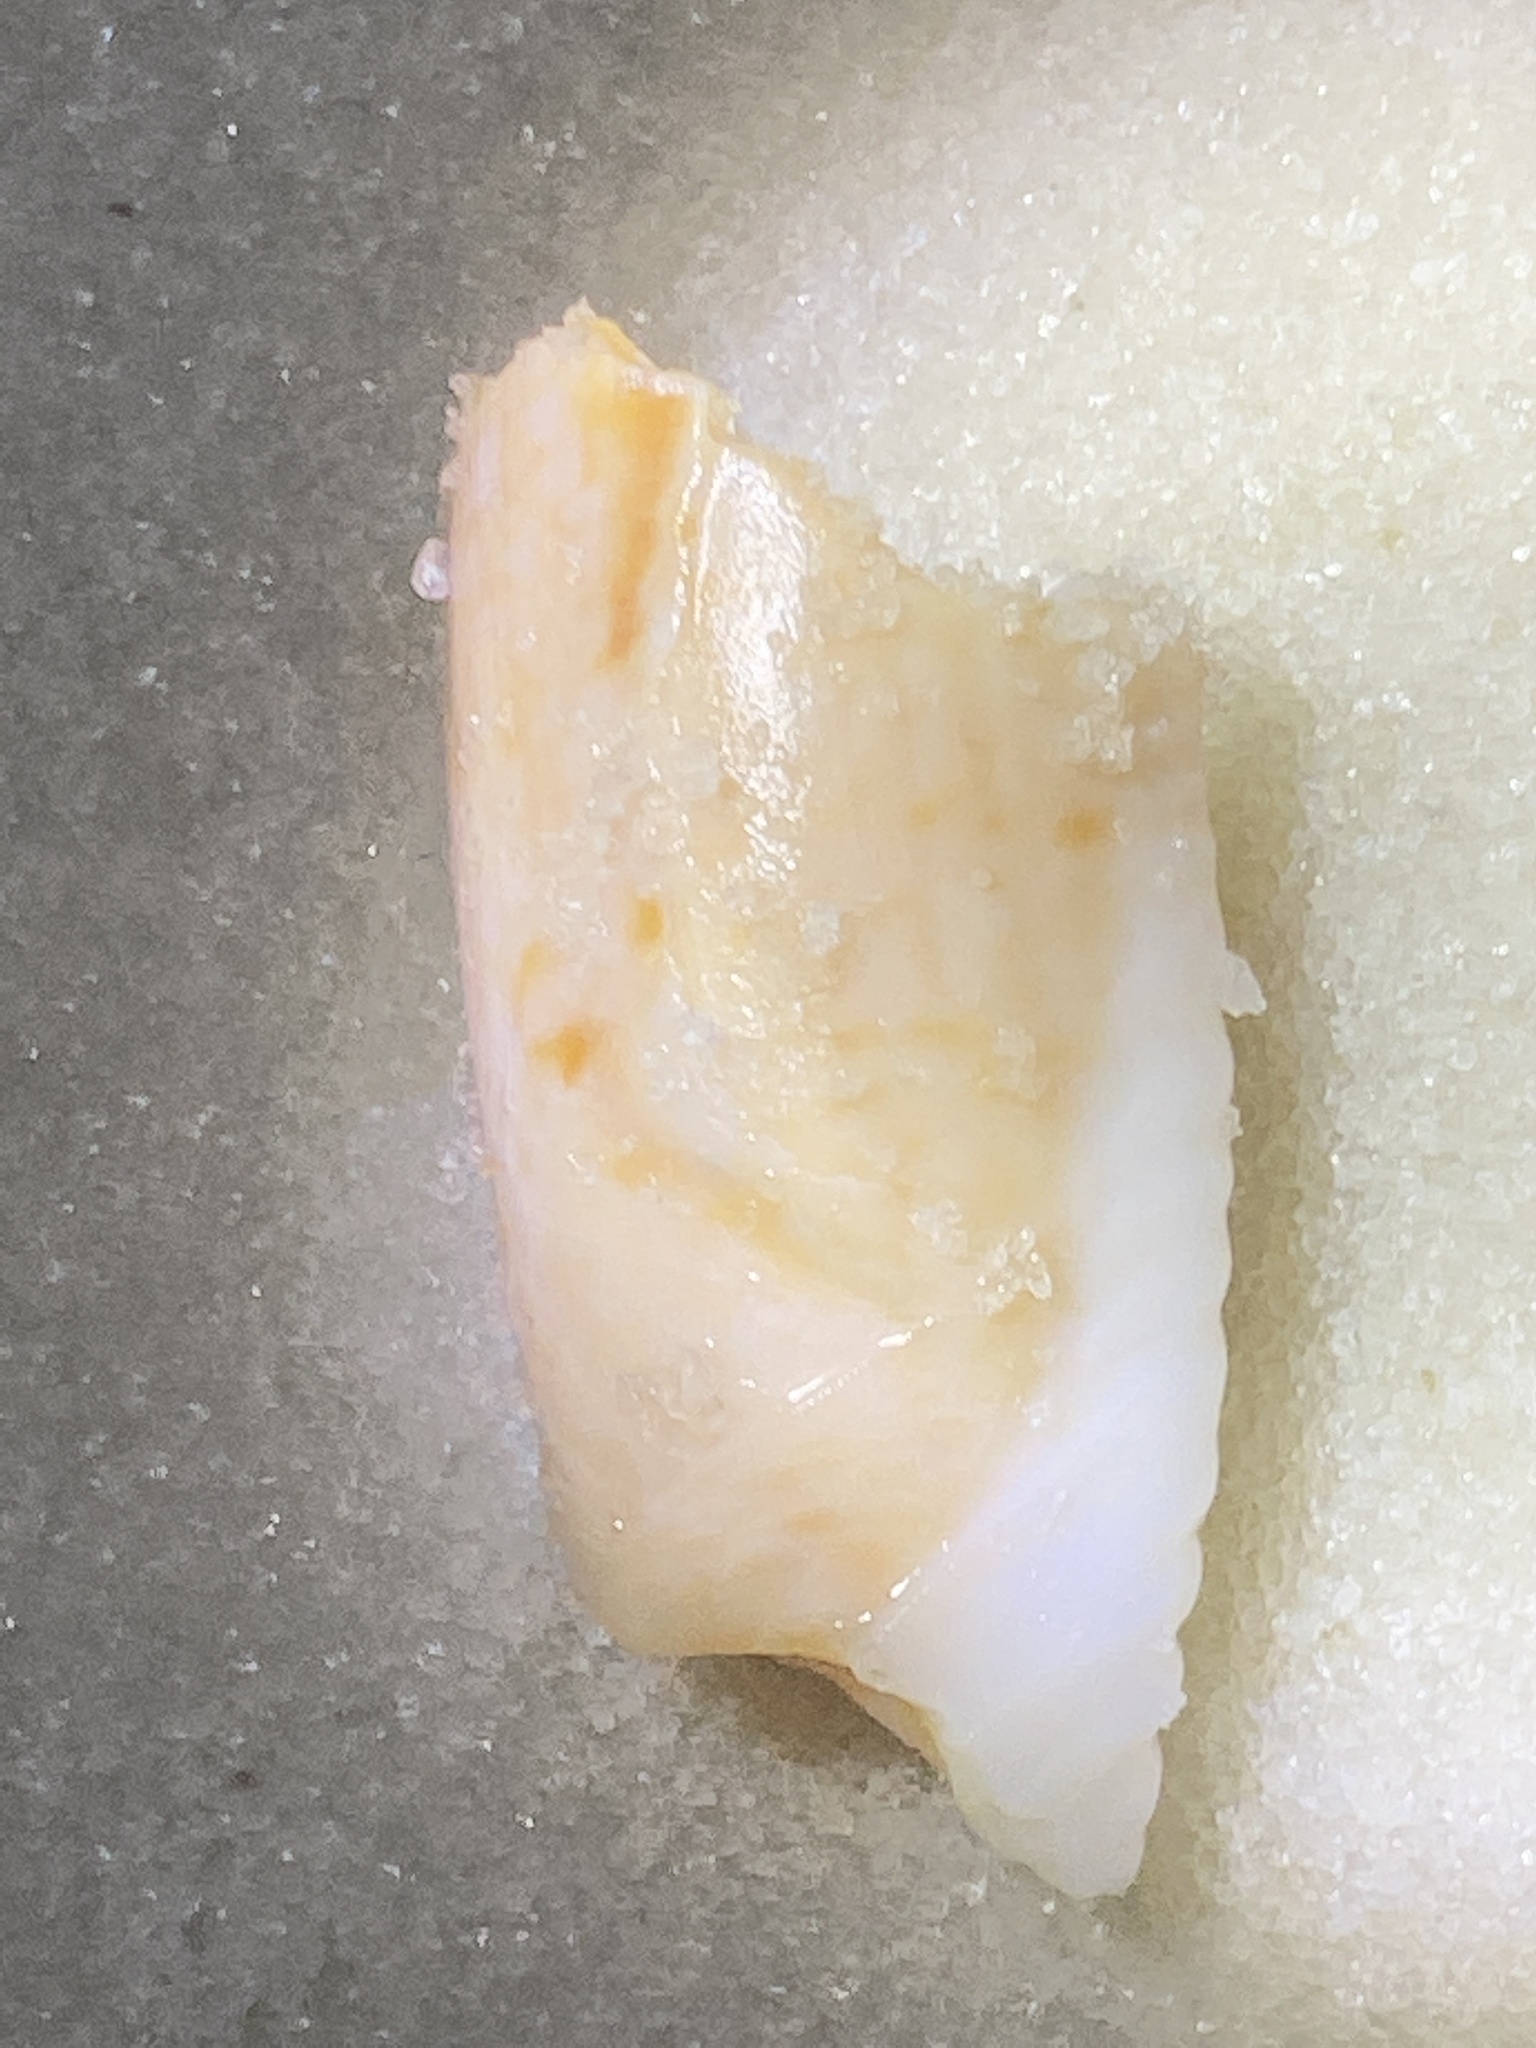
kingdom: Animalia
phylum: Mollusca
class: Gastropoda
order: Neogastropoda
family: Olividae
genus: Oliva
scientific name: Oliva sayana
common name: Lettered olive
